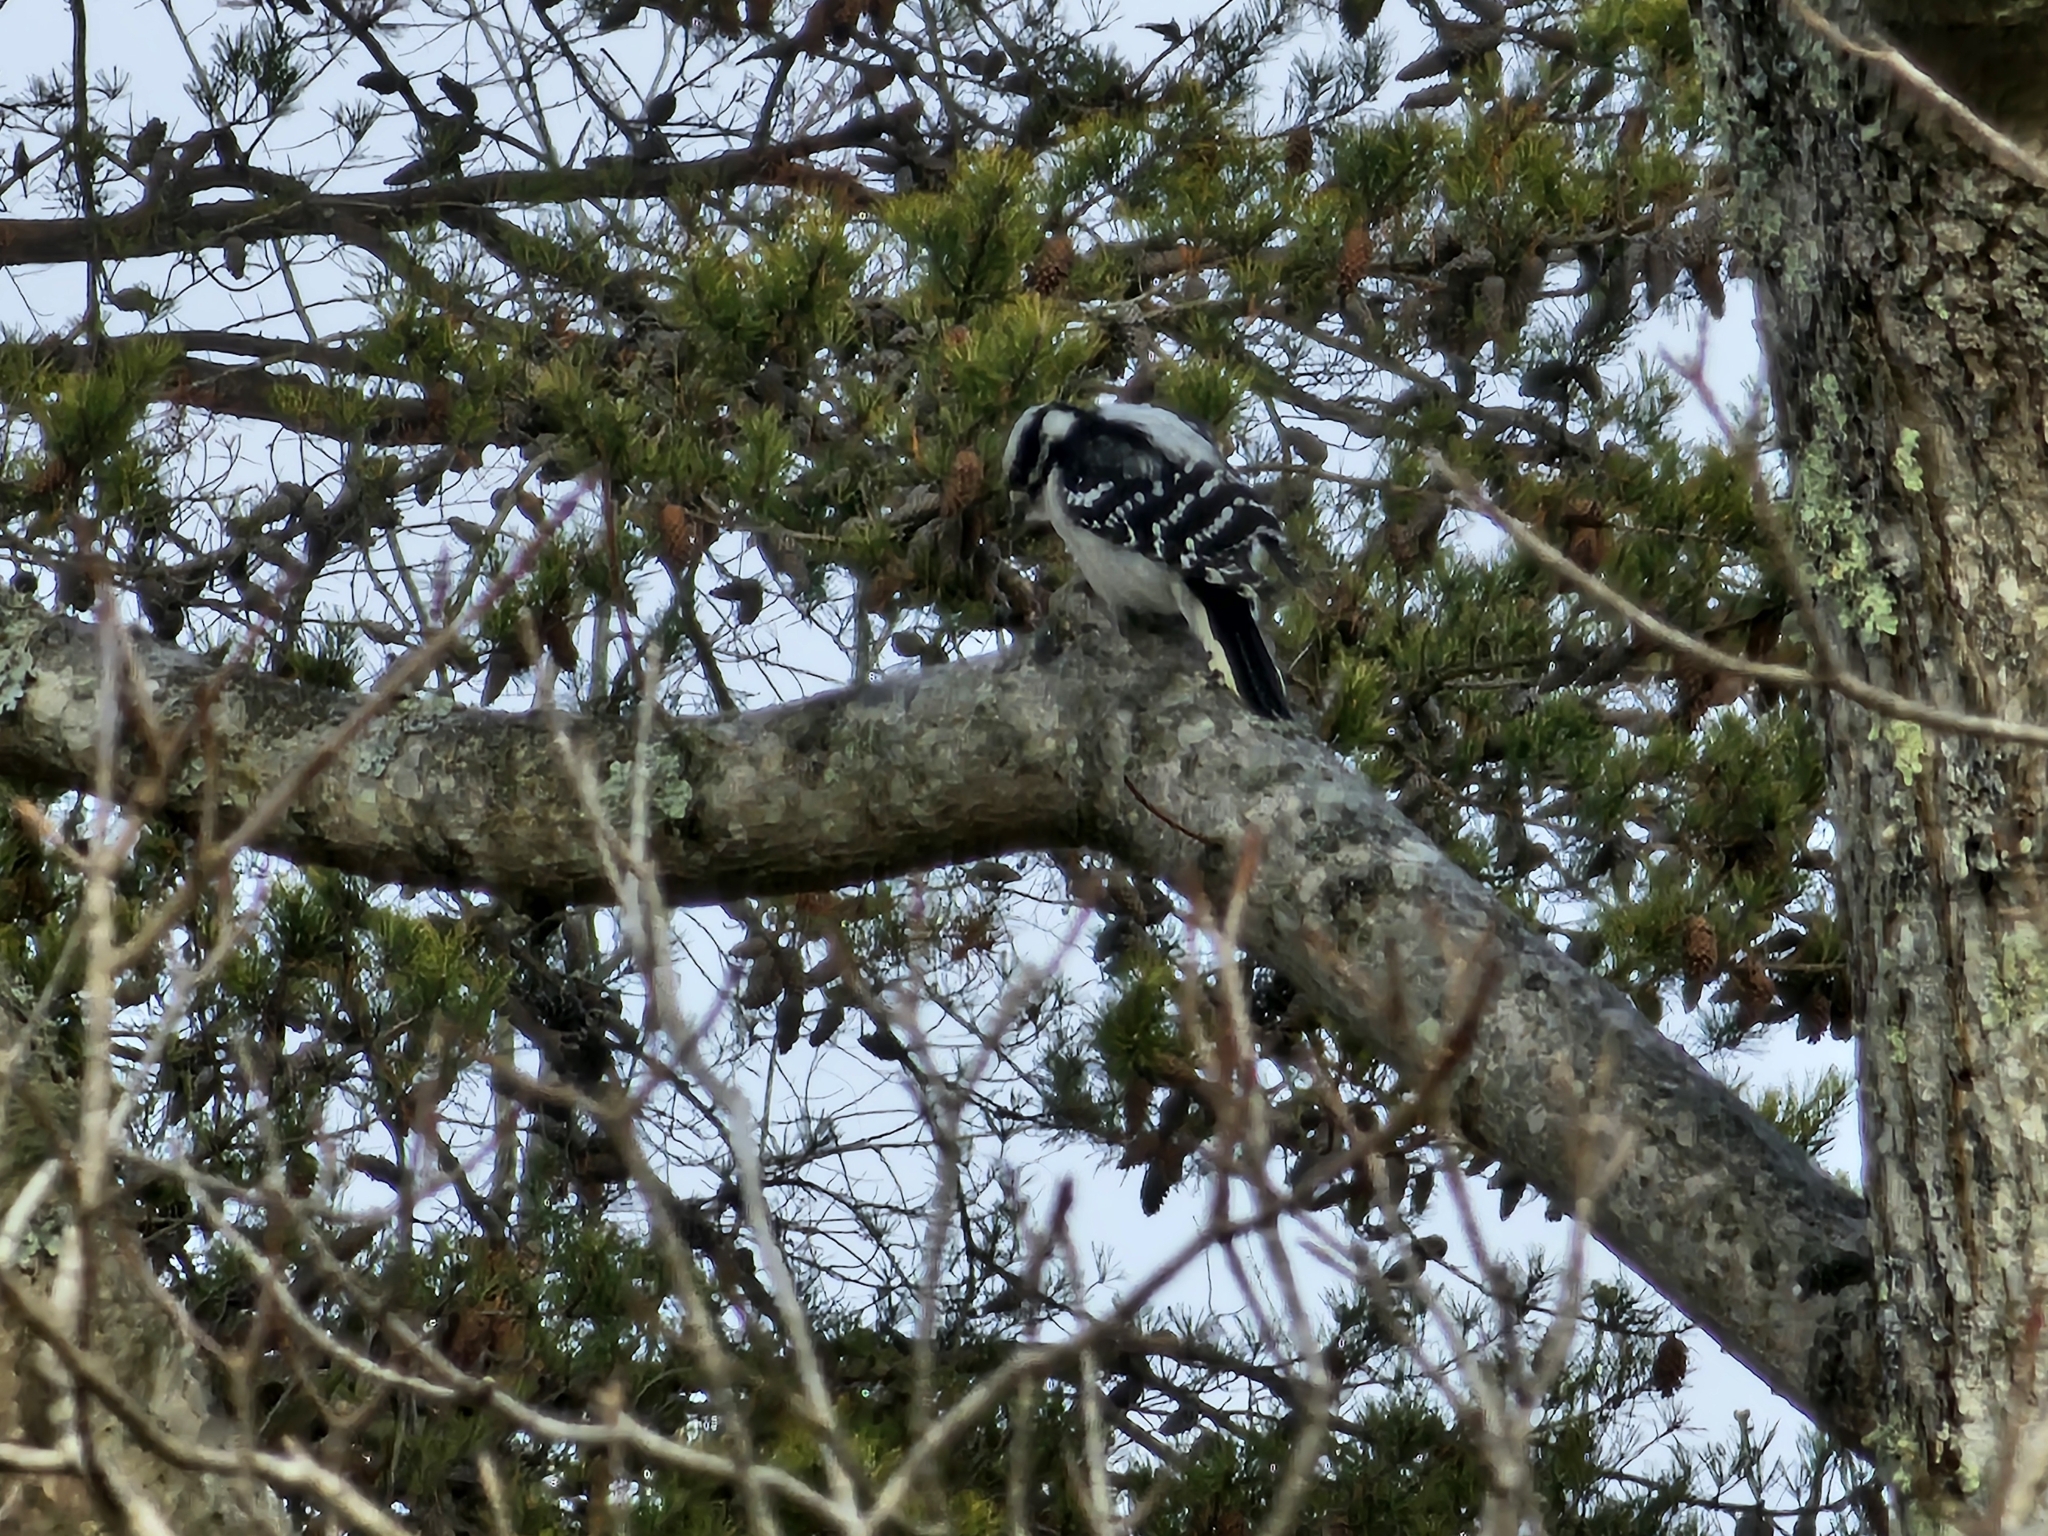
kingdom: Animalia
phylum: Chordata
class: Aves
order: Piciformes
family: Picidae
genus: Dryobates
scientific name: Dryobates pubescens
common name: Downy woodpecker
